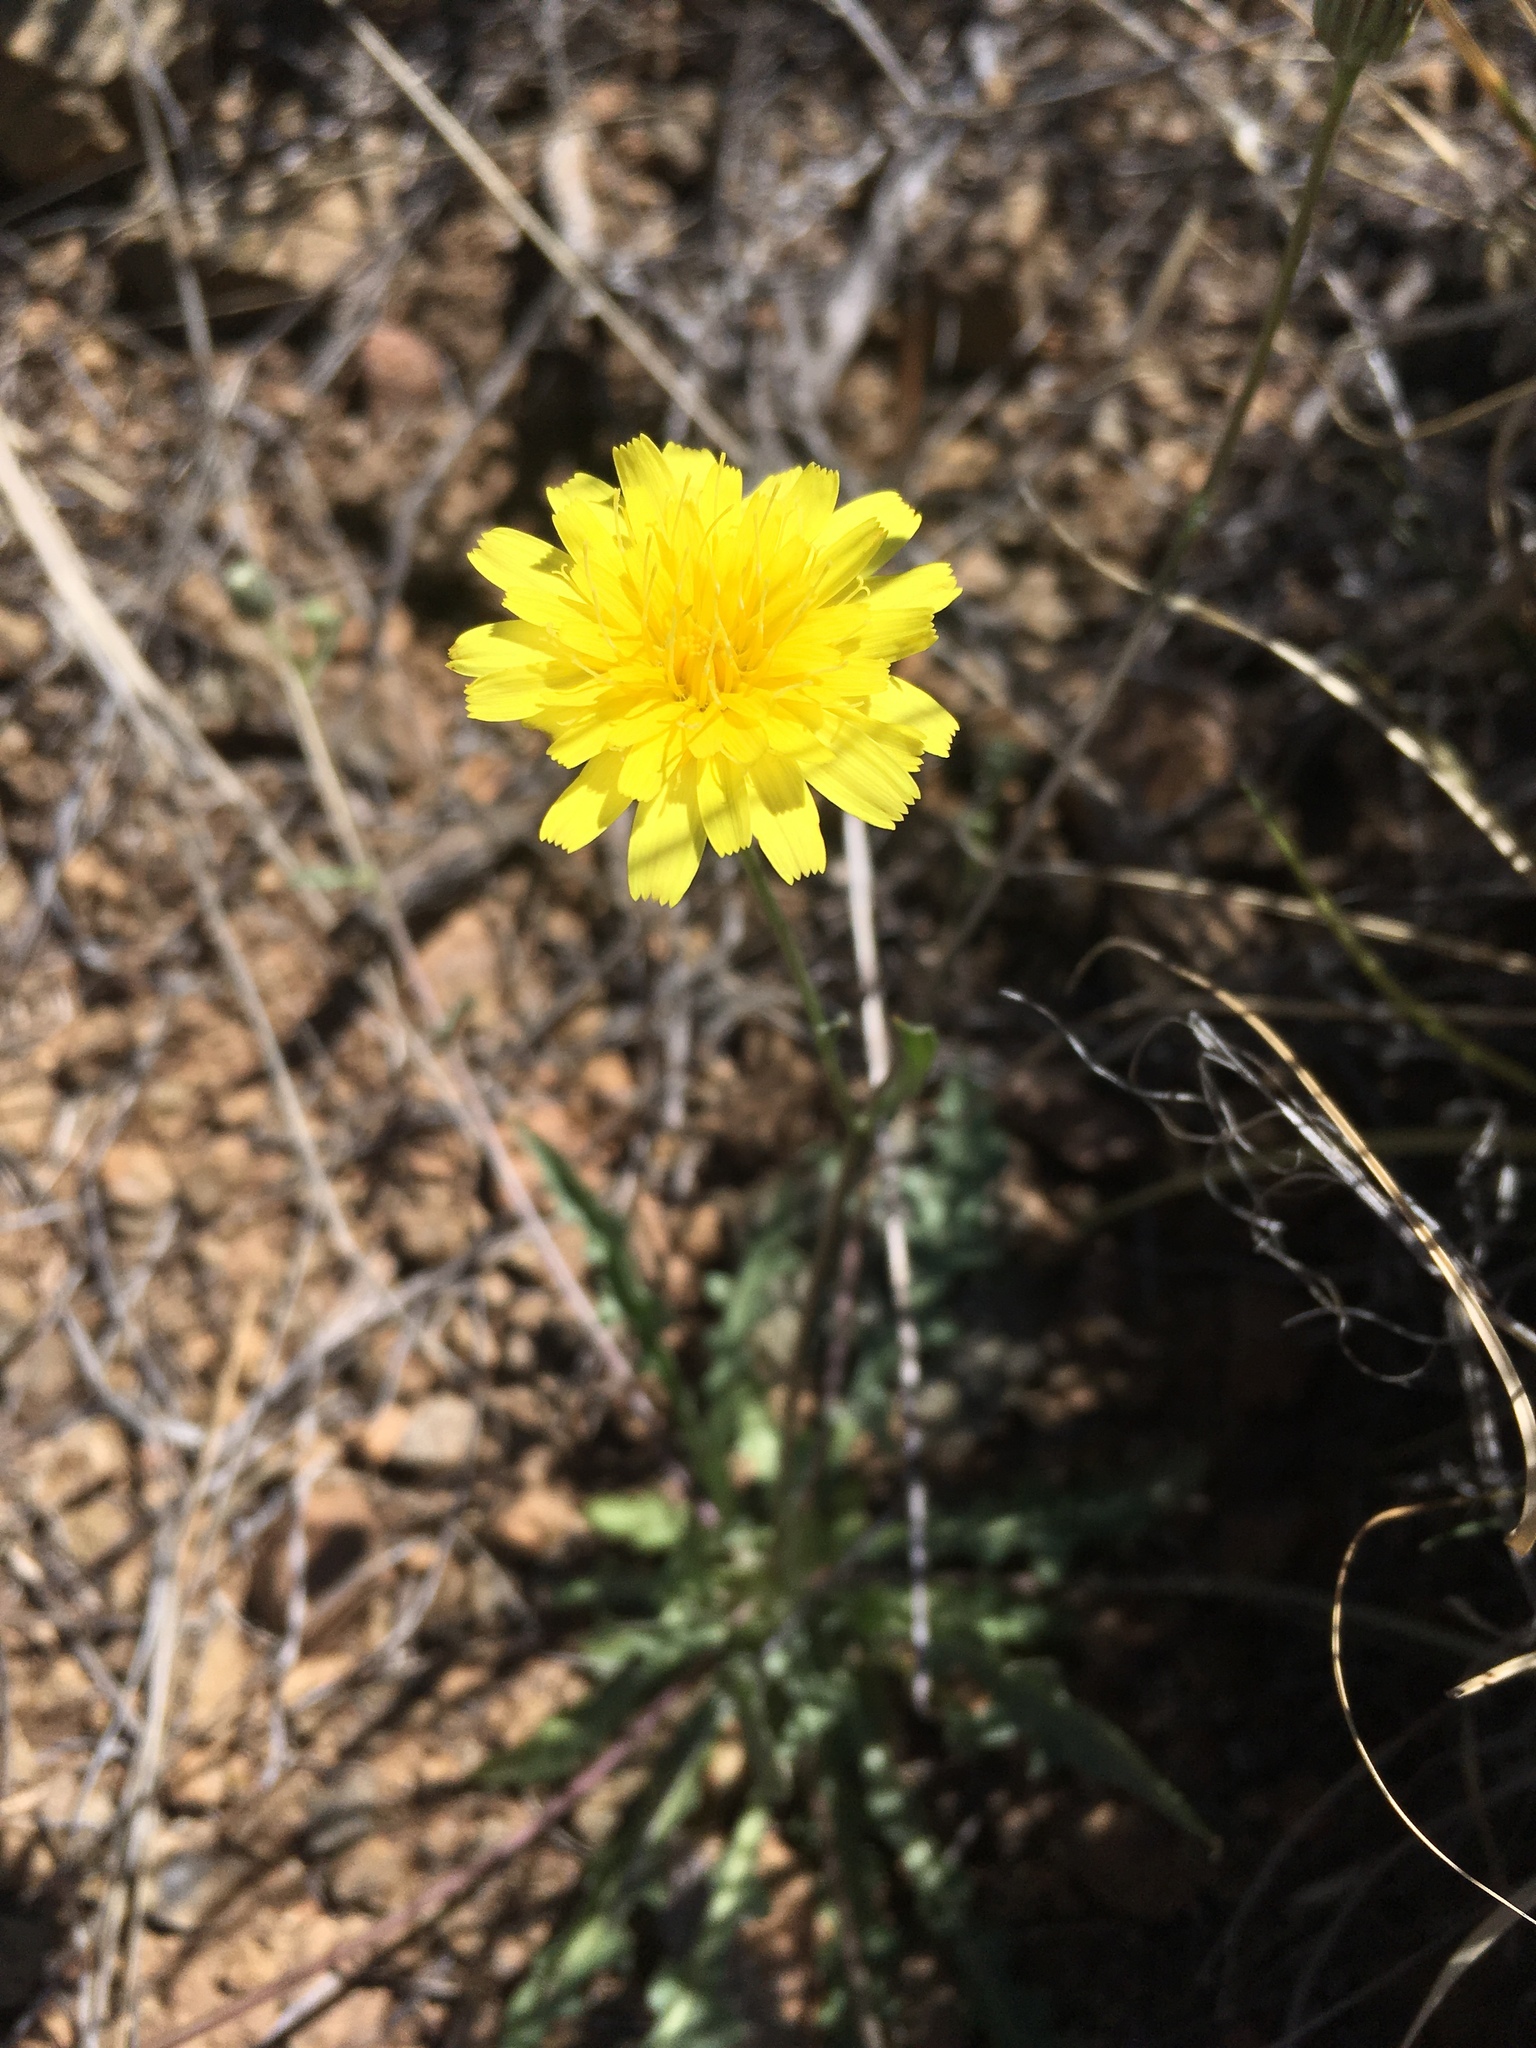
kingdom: Plantae
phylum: Tracheophyta
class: Magnoliopsida
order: Asterales
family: Asteraceae
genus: Malacothrix
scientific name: Malacothrix fendleri
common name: Fendler's desert-dandelion
